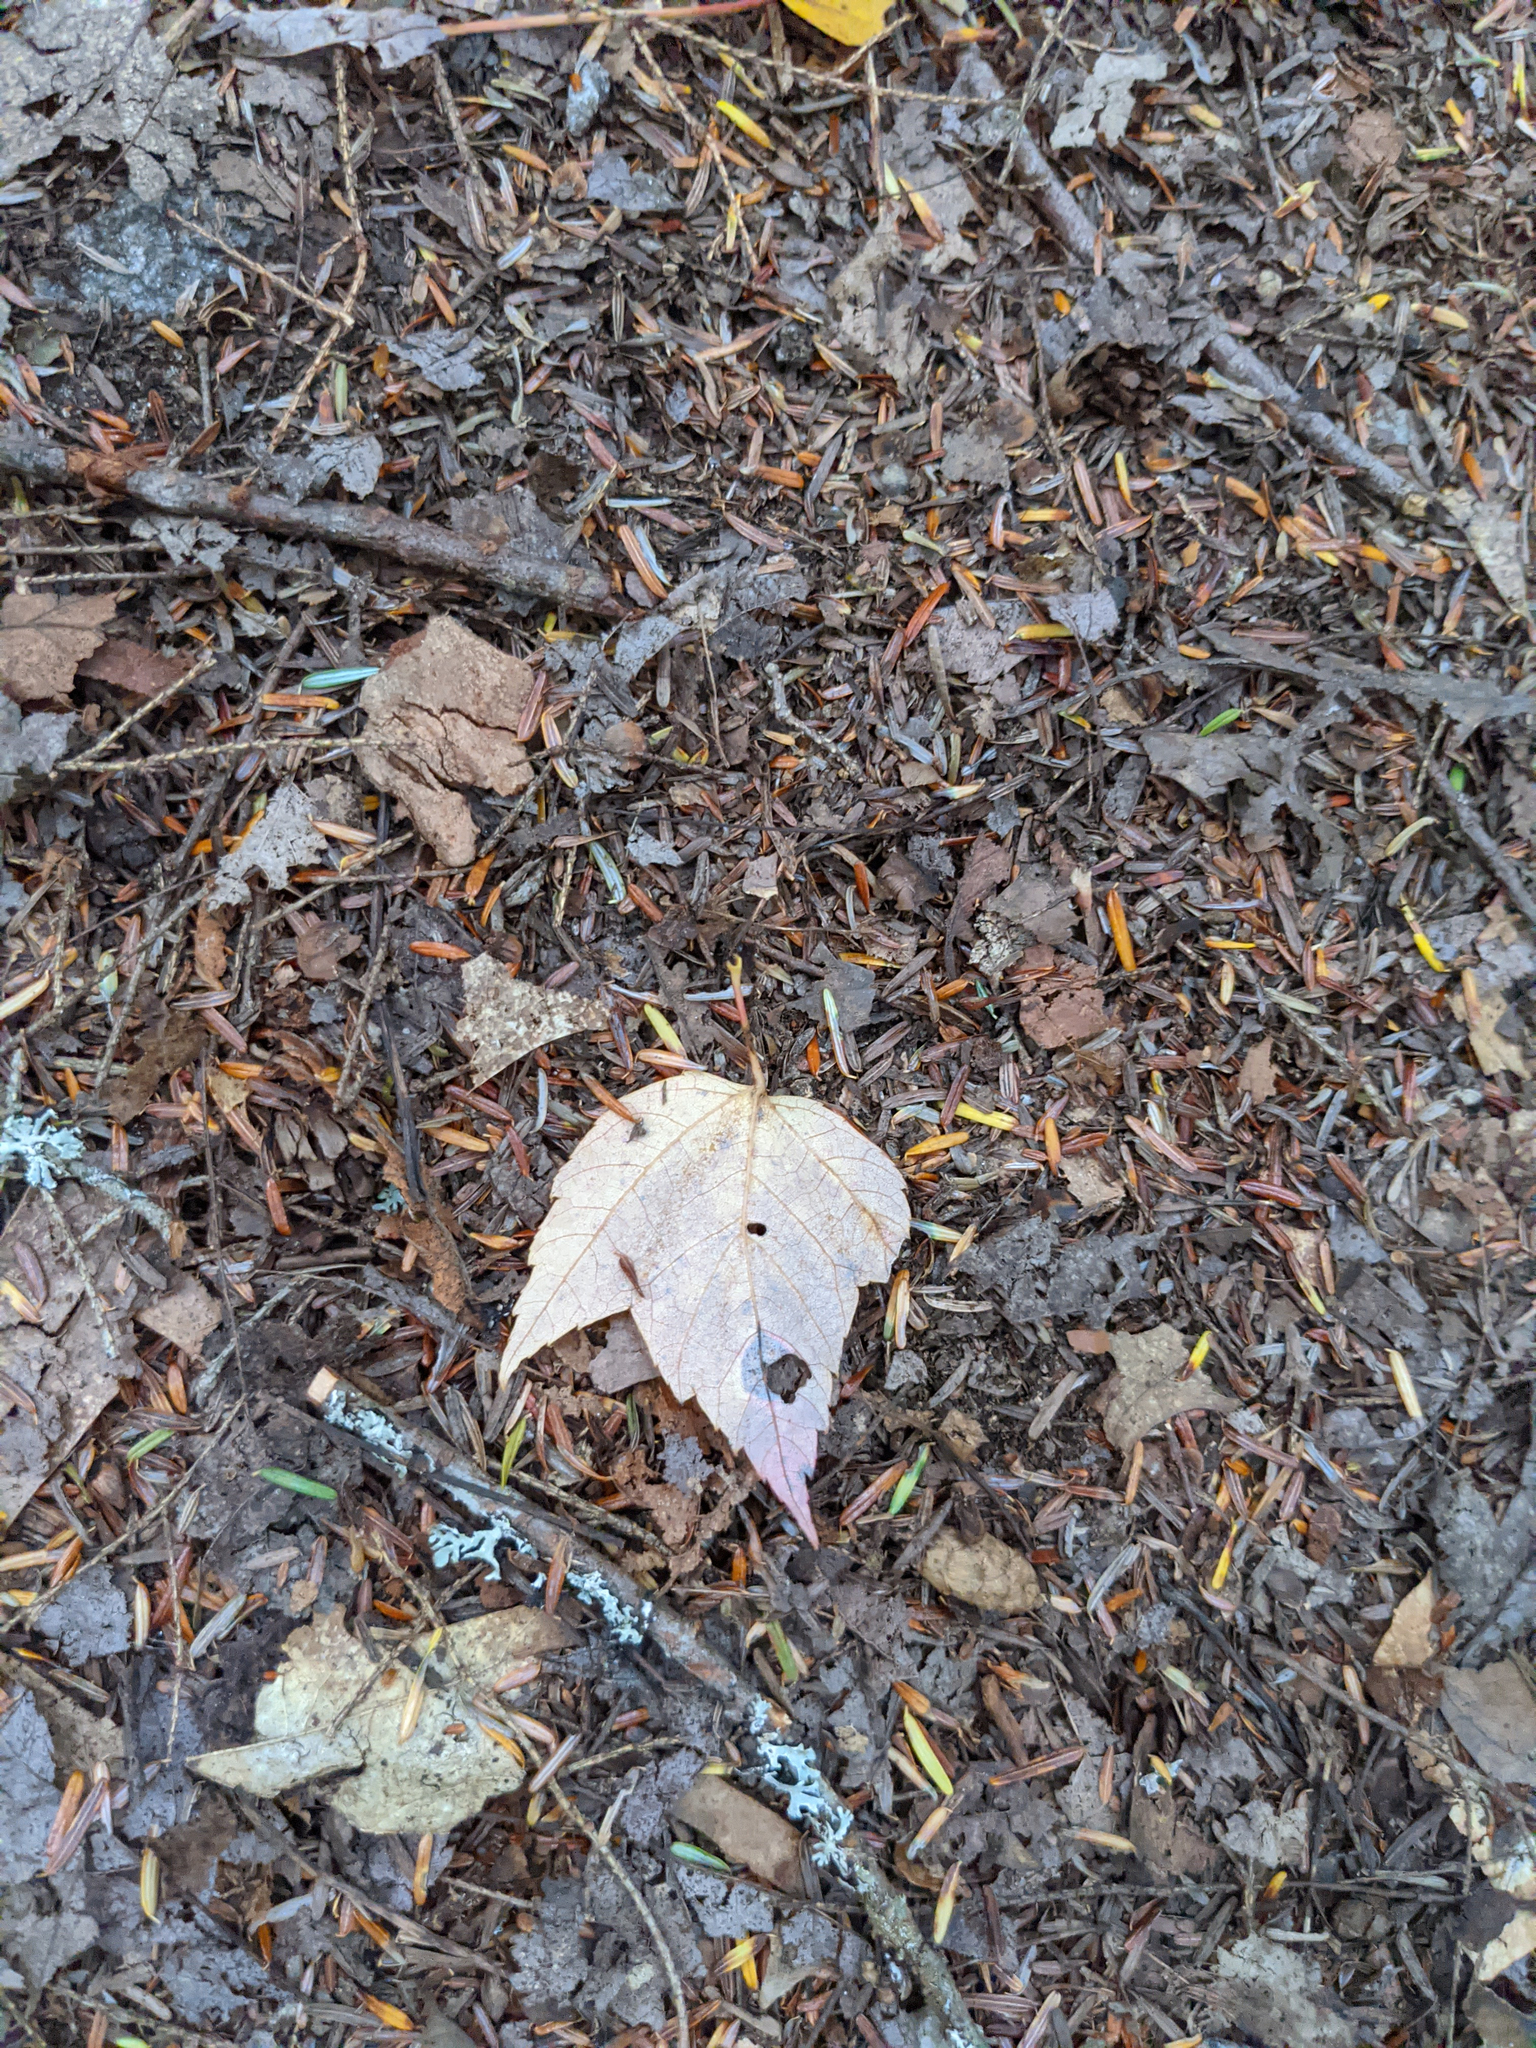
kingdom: Plantae
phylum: Tracheophyta
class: Magnoliopsida
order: Sapindales
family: Sapindaceae
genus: Acer
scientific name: Acer rubrum
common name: Red maple
